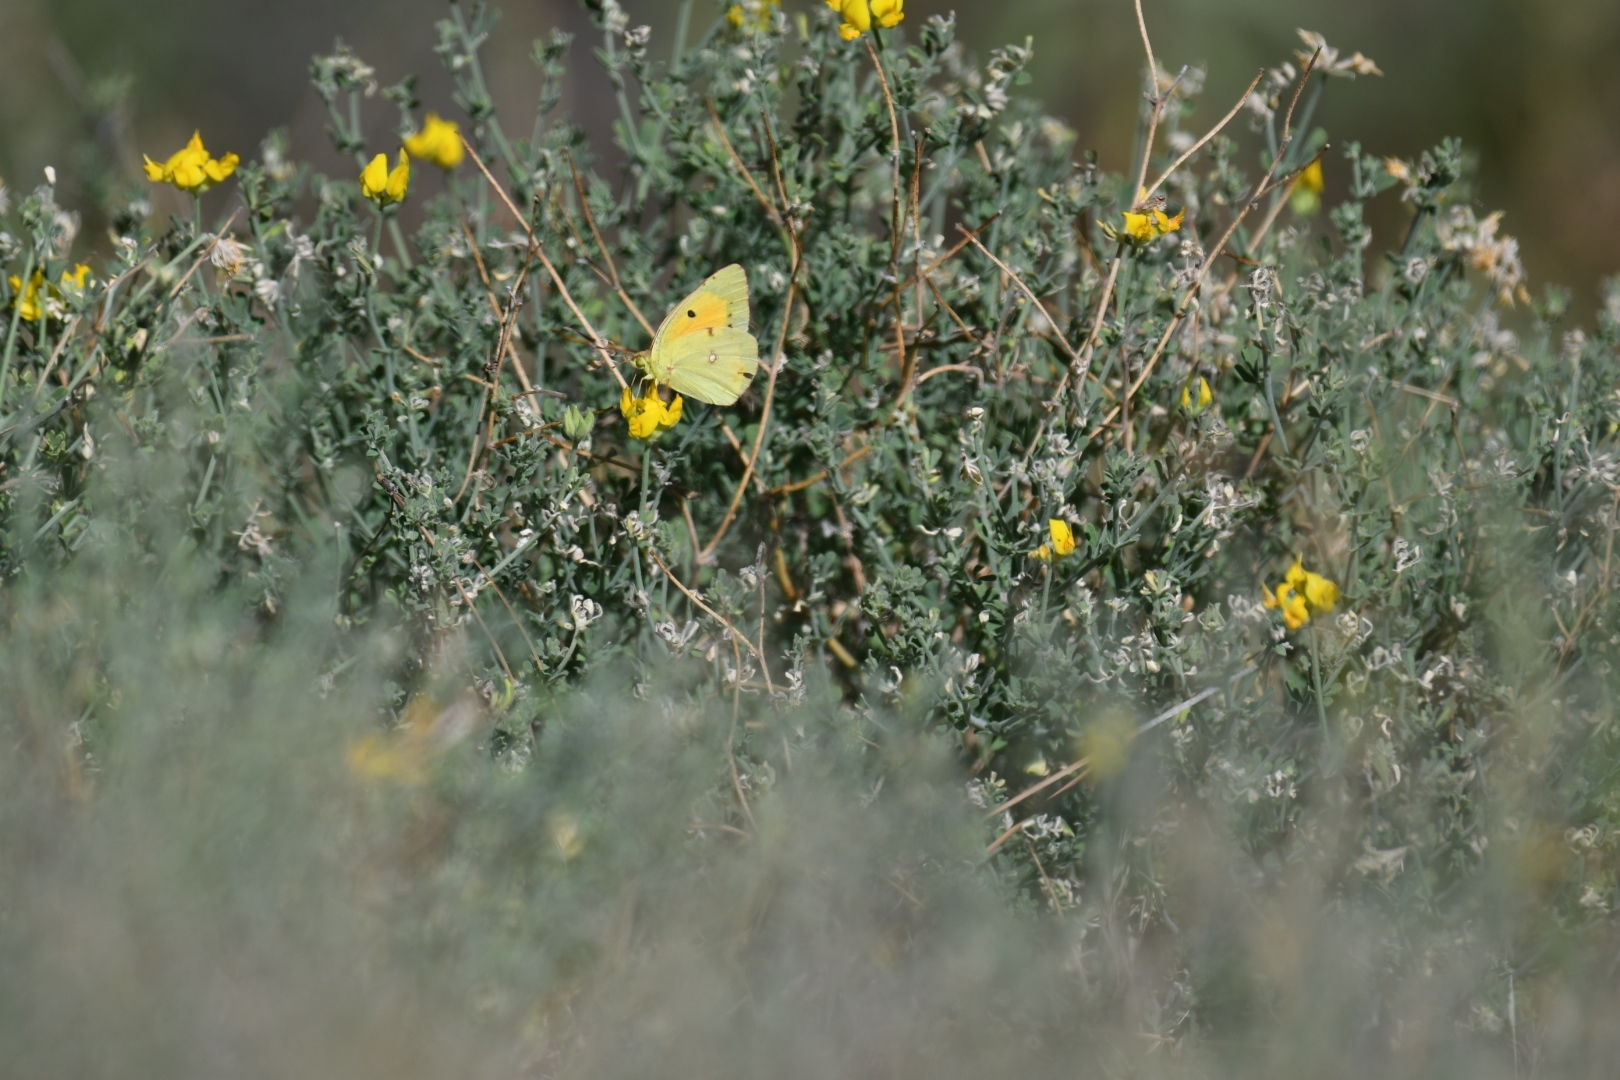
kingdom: Animalia
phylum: Arthropoda
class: Insecta
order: Lepidoptera
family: Pieridae
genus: Colias
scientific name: Colias croceus
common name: Clouded yellow
